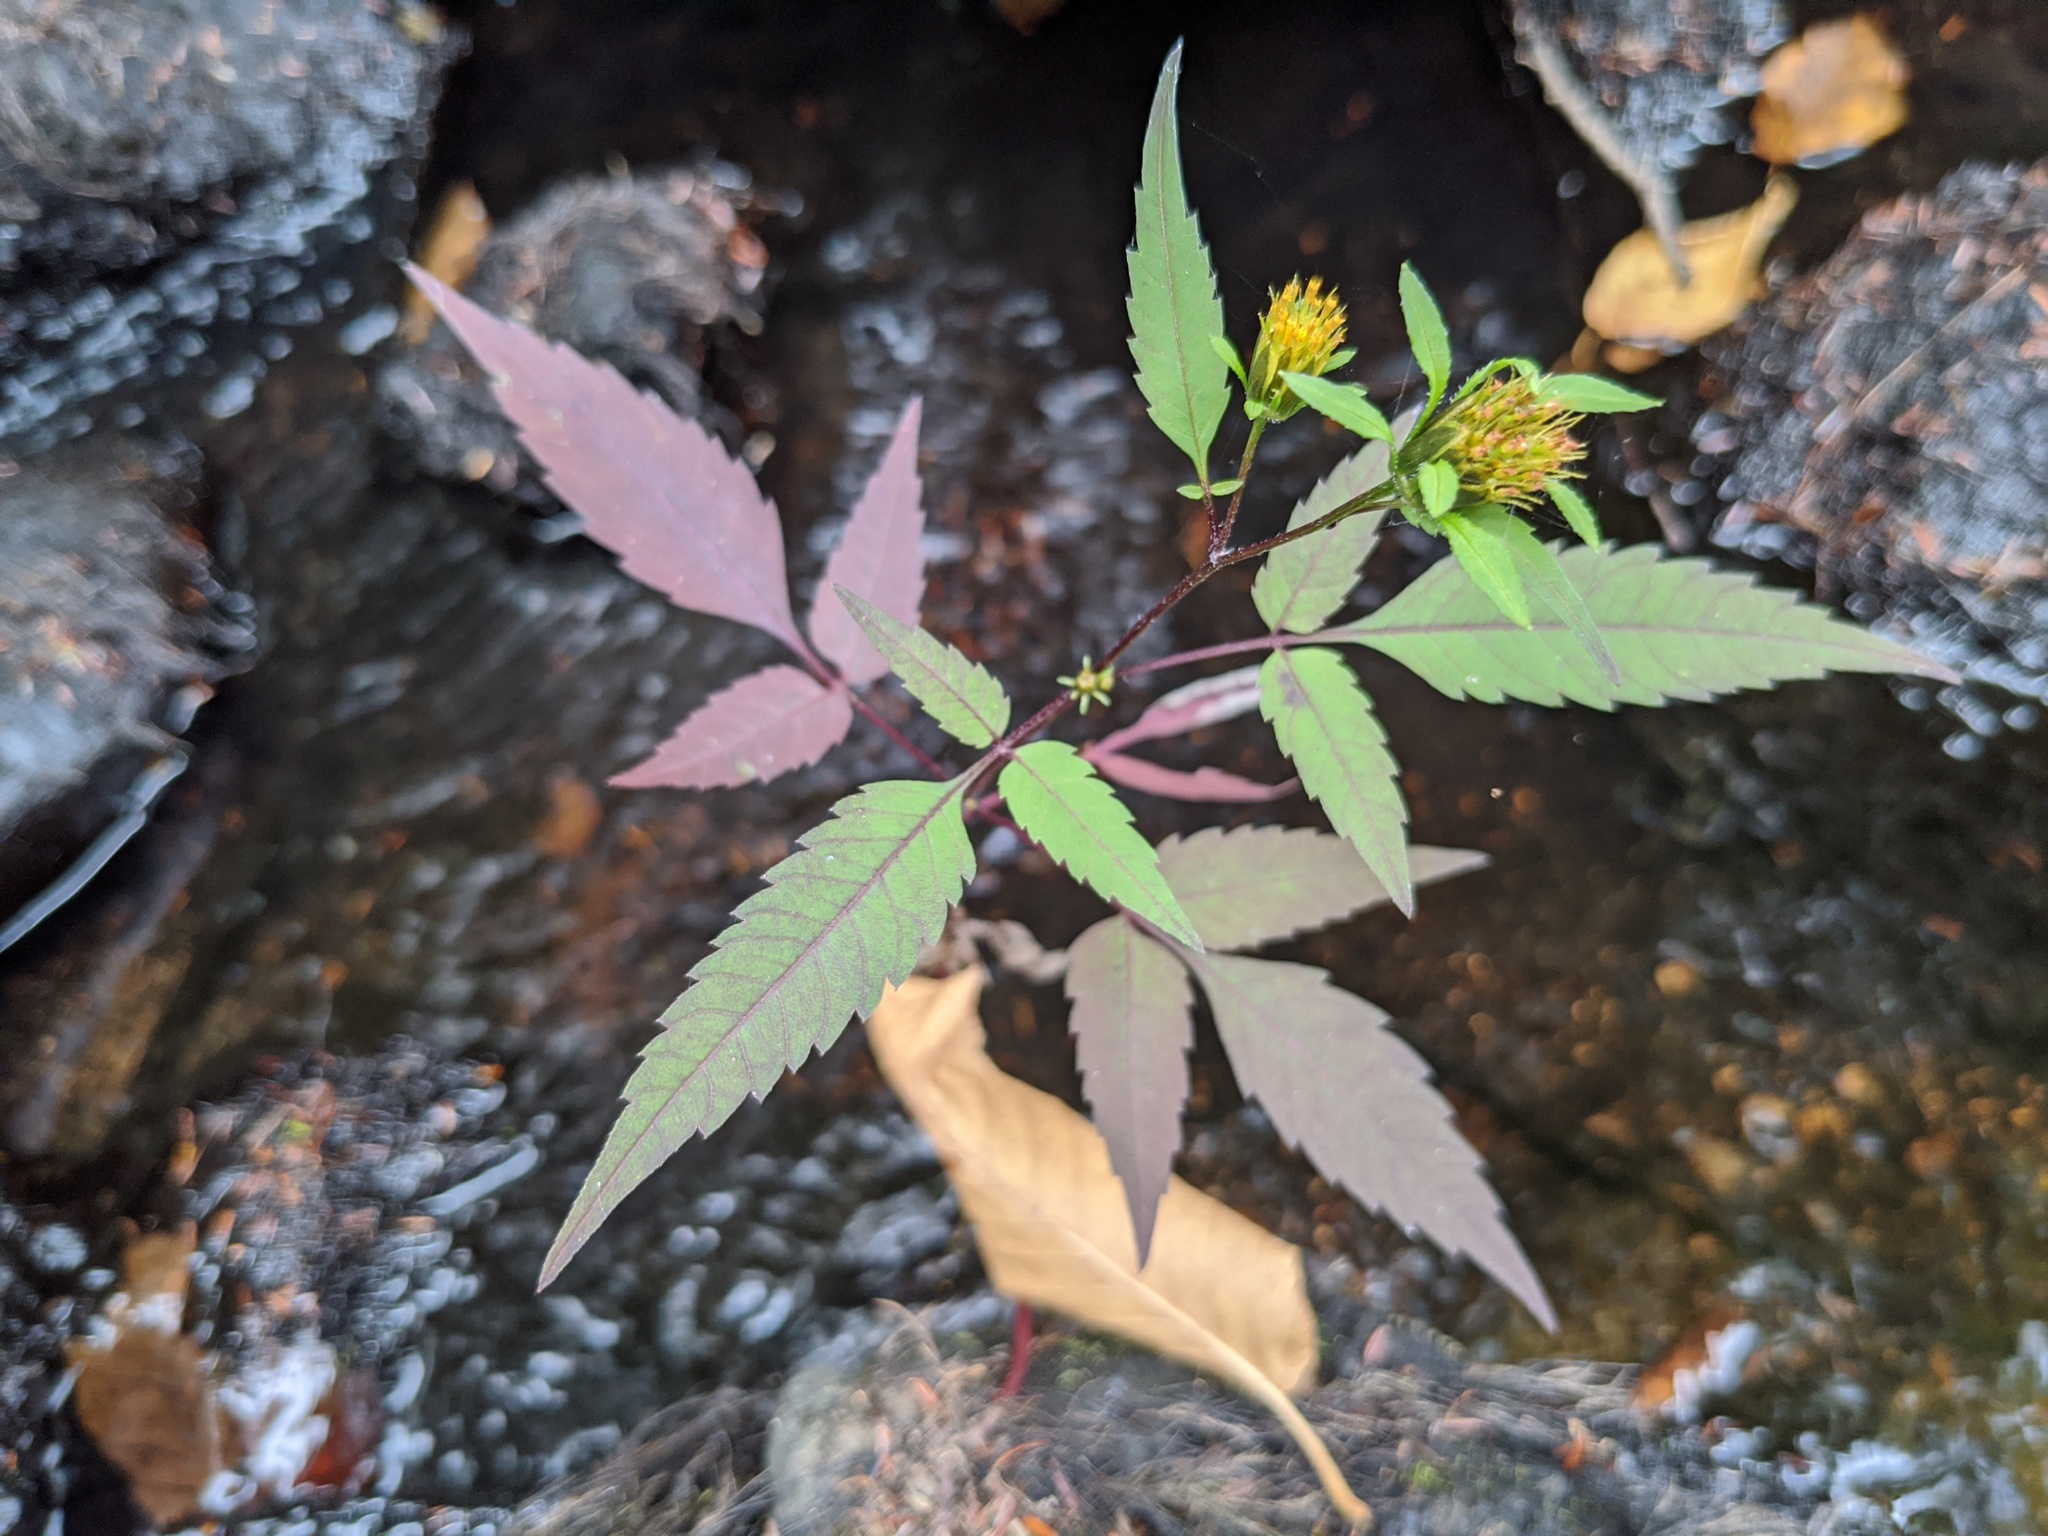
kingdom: Plantae
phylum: Tracheophyta
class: Magnoliopsida
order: Asterales
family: Asteraceae
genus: Bidens
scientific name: Bidens frondosa
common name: Beggarticks
